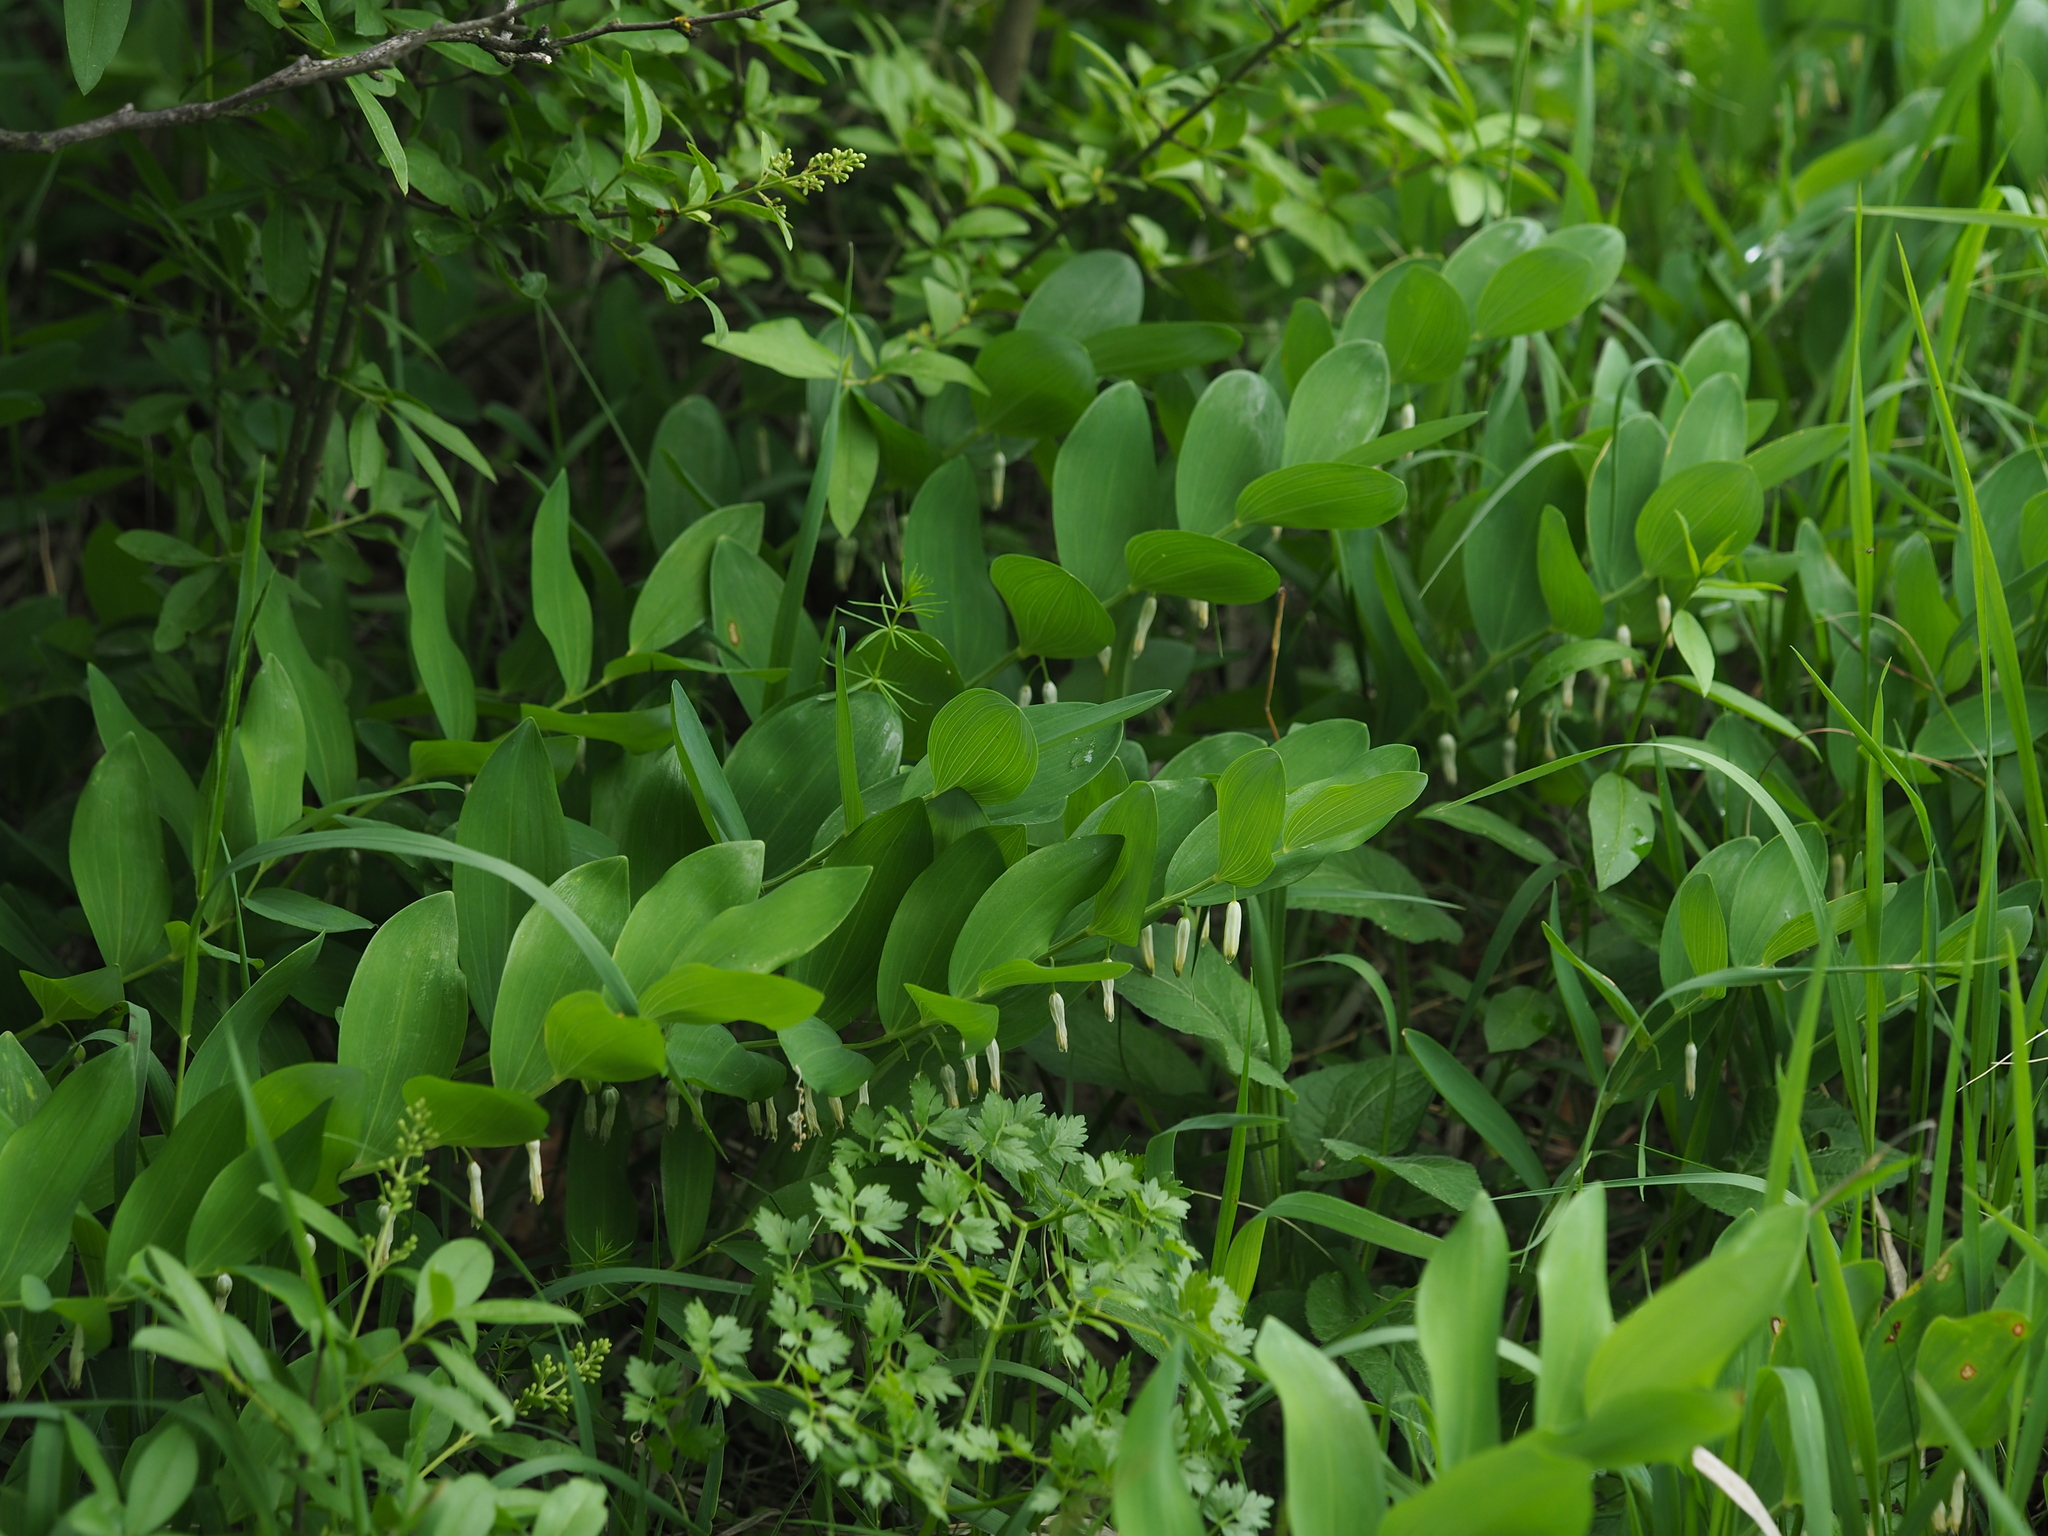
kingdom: Plantae
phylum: Tracheophyta
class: Liliopsida
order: Asparagales
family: Asparagaceae
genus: Polygonatum
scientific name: Polygonatum odoratum
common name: Angular solomon's-seal
